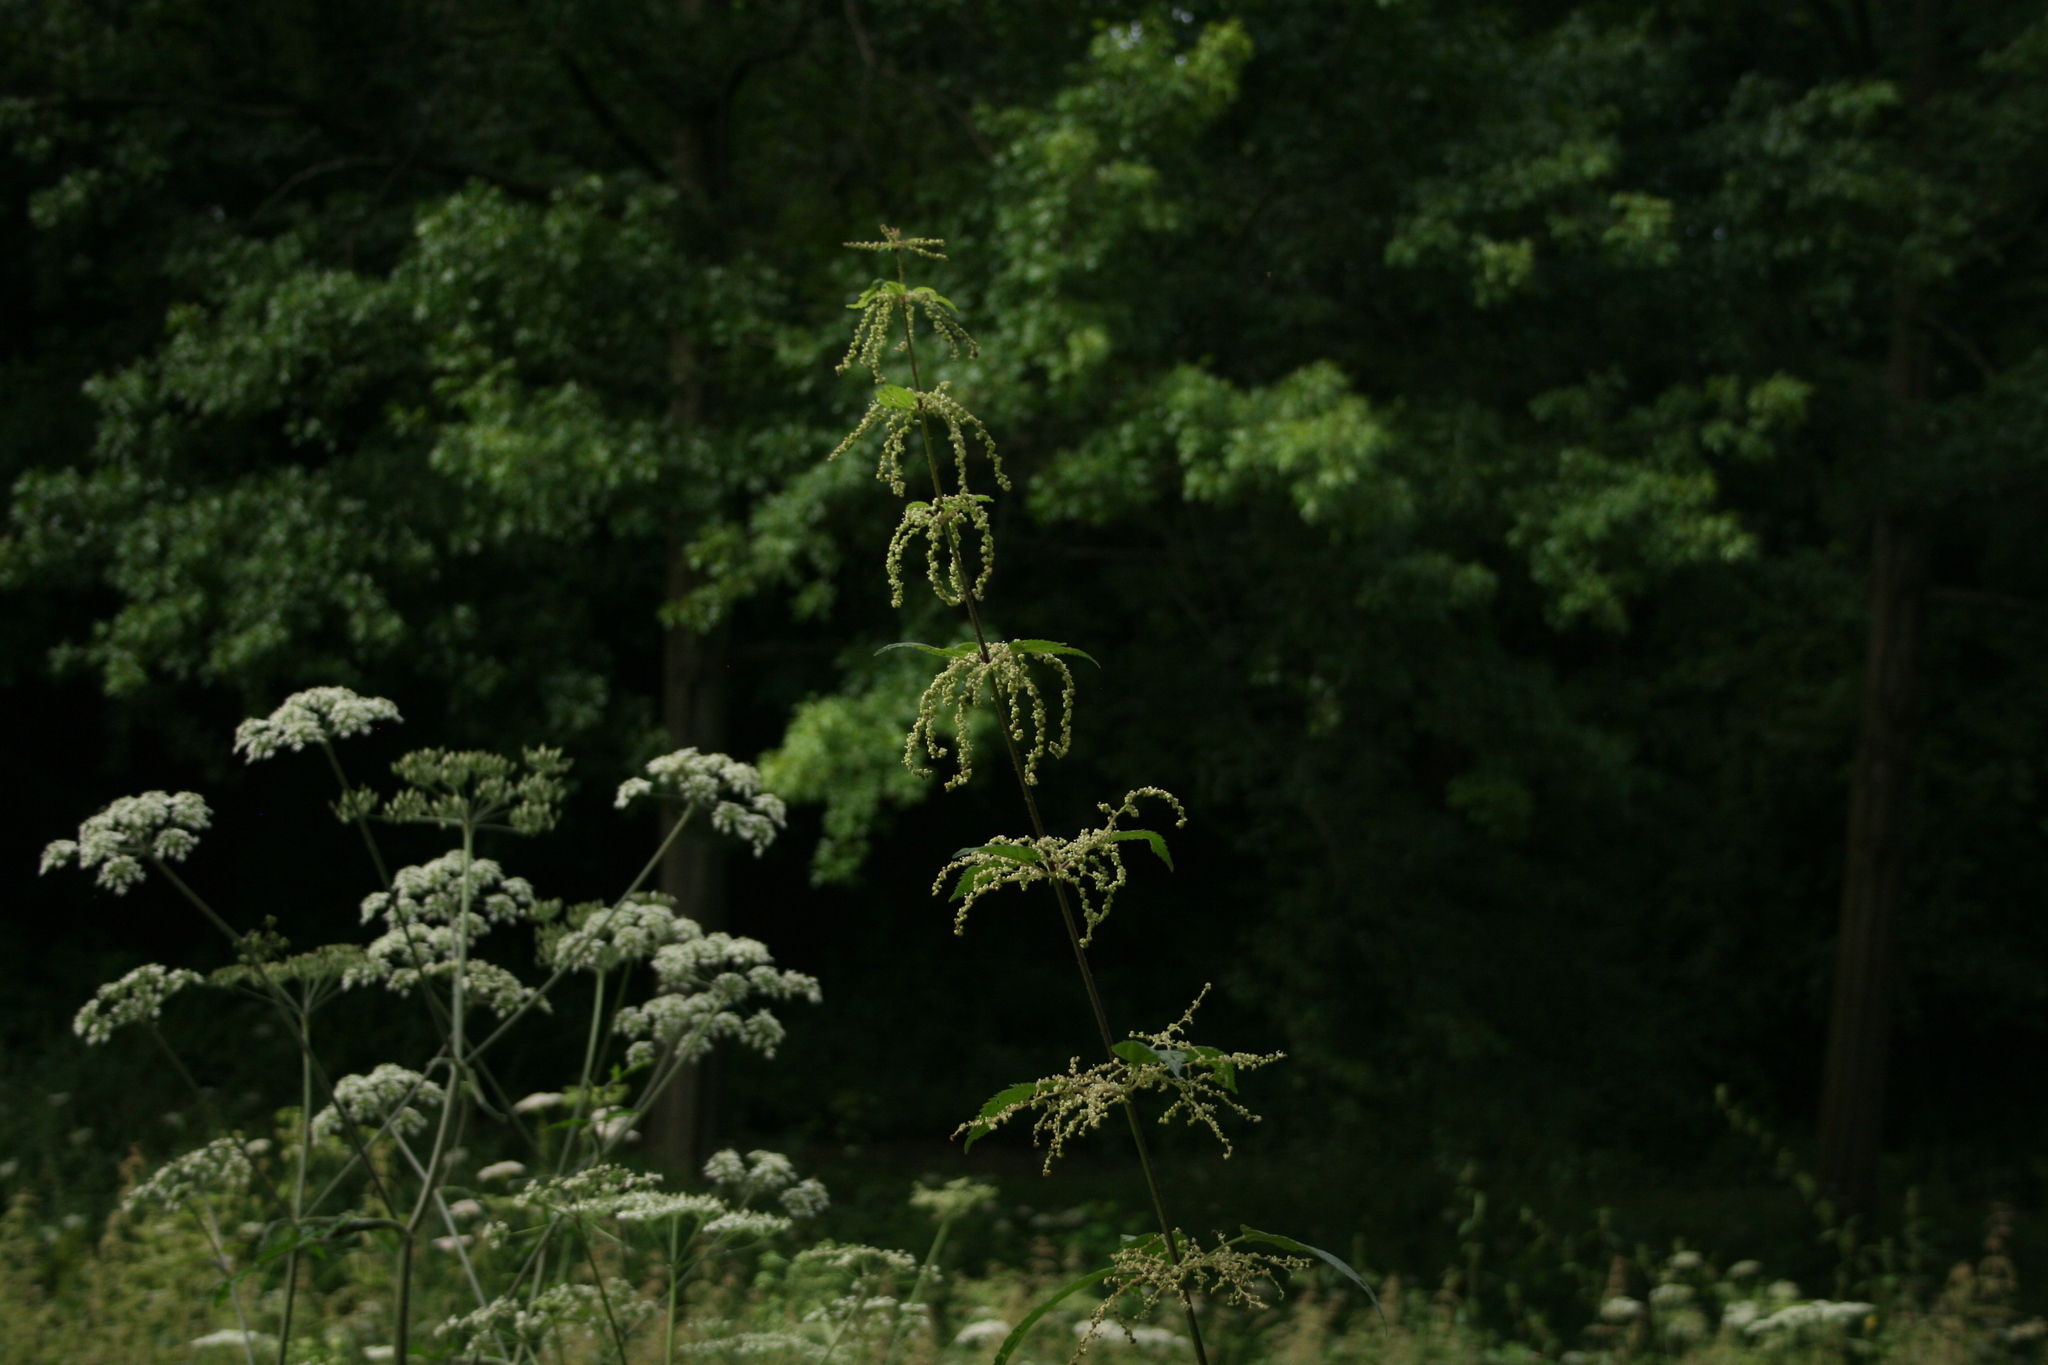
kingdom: Plantae
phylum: Tracheophyta
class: Magnoliopsida
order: Rosales
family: Urticaceae
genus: Urtica
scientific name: Urtica dioica
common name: Common nettle
